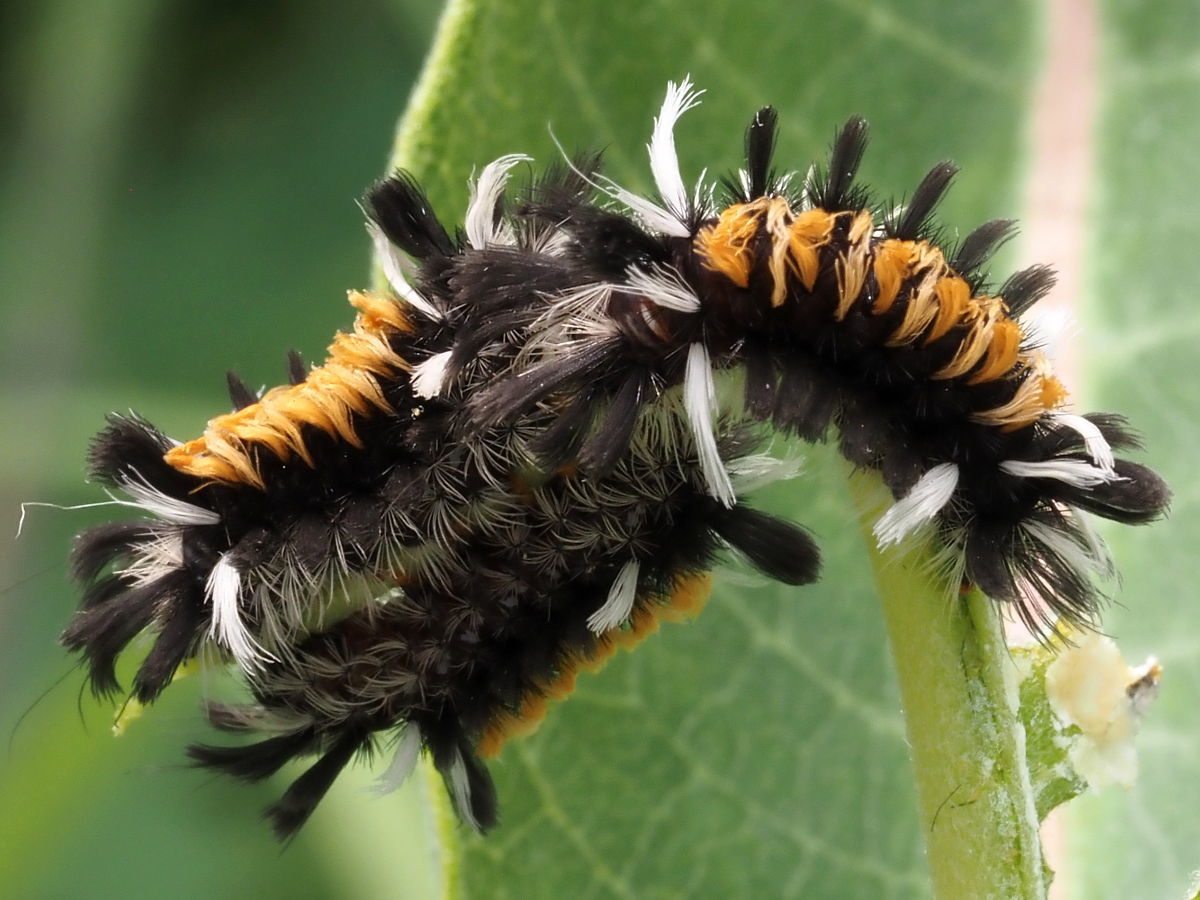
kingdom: Animalia
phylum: Arthropoda
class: Insecta
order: Lepidoptera
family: Erebidae
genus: Euchaetes
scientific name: Euchaetes egle
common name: Milkweed tussock moth
